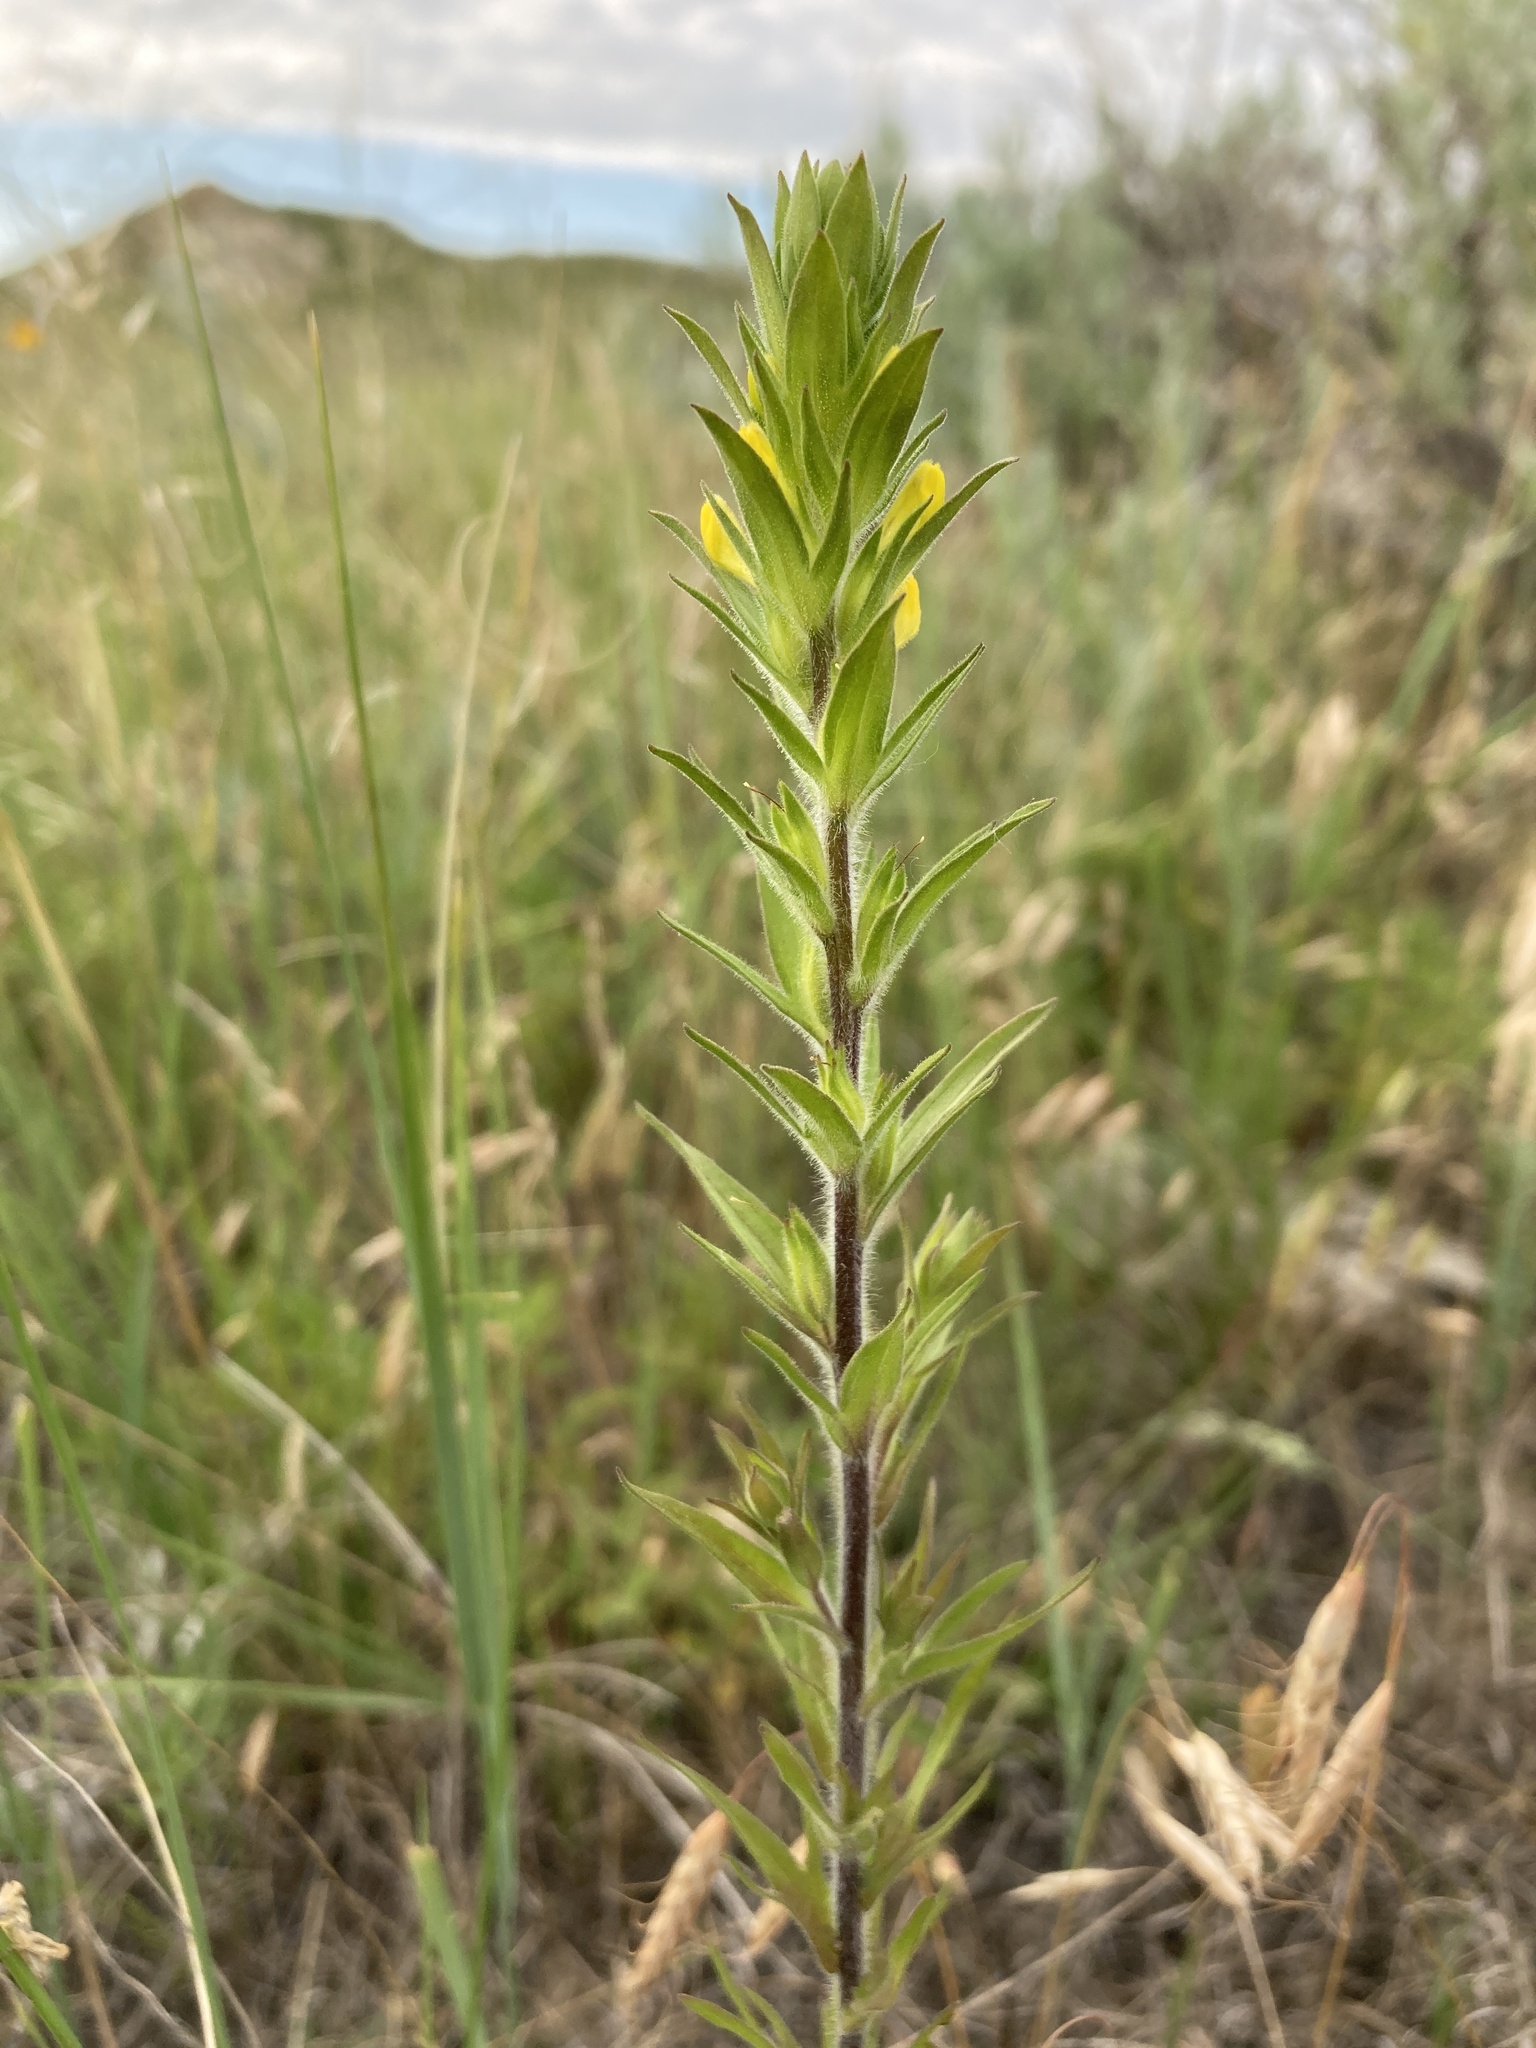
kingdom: Plantae
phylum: Tracheophyta
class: Magnoliopsida
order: Lamiales
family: Orobanchaceae
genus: Orthocarpus
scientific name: Orthocarpus luteus
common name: Golden-tongue owl's-clover
